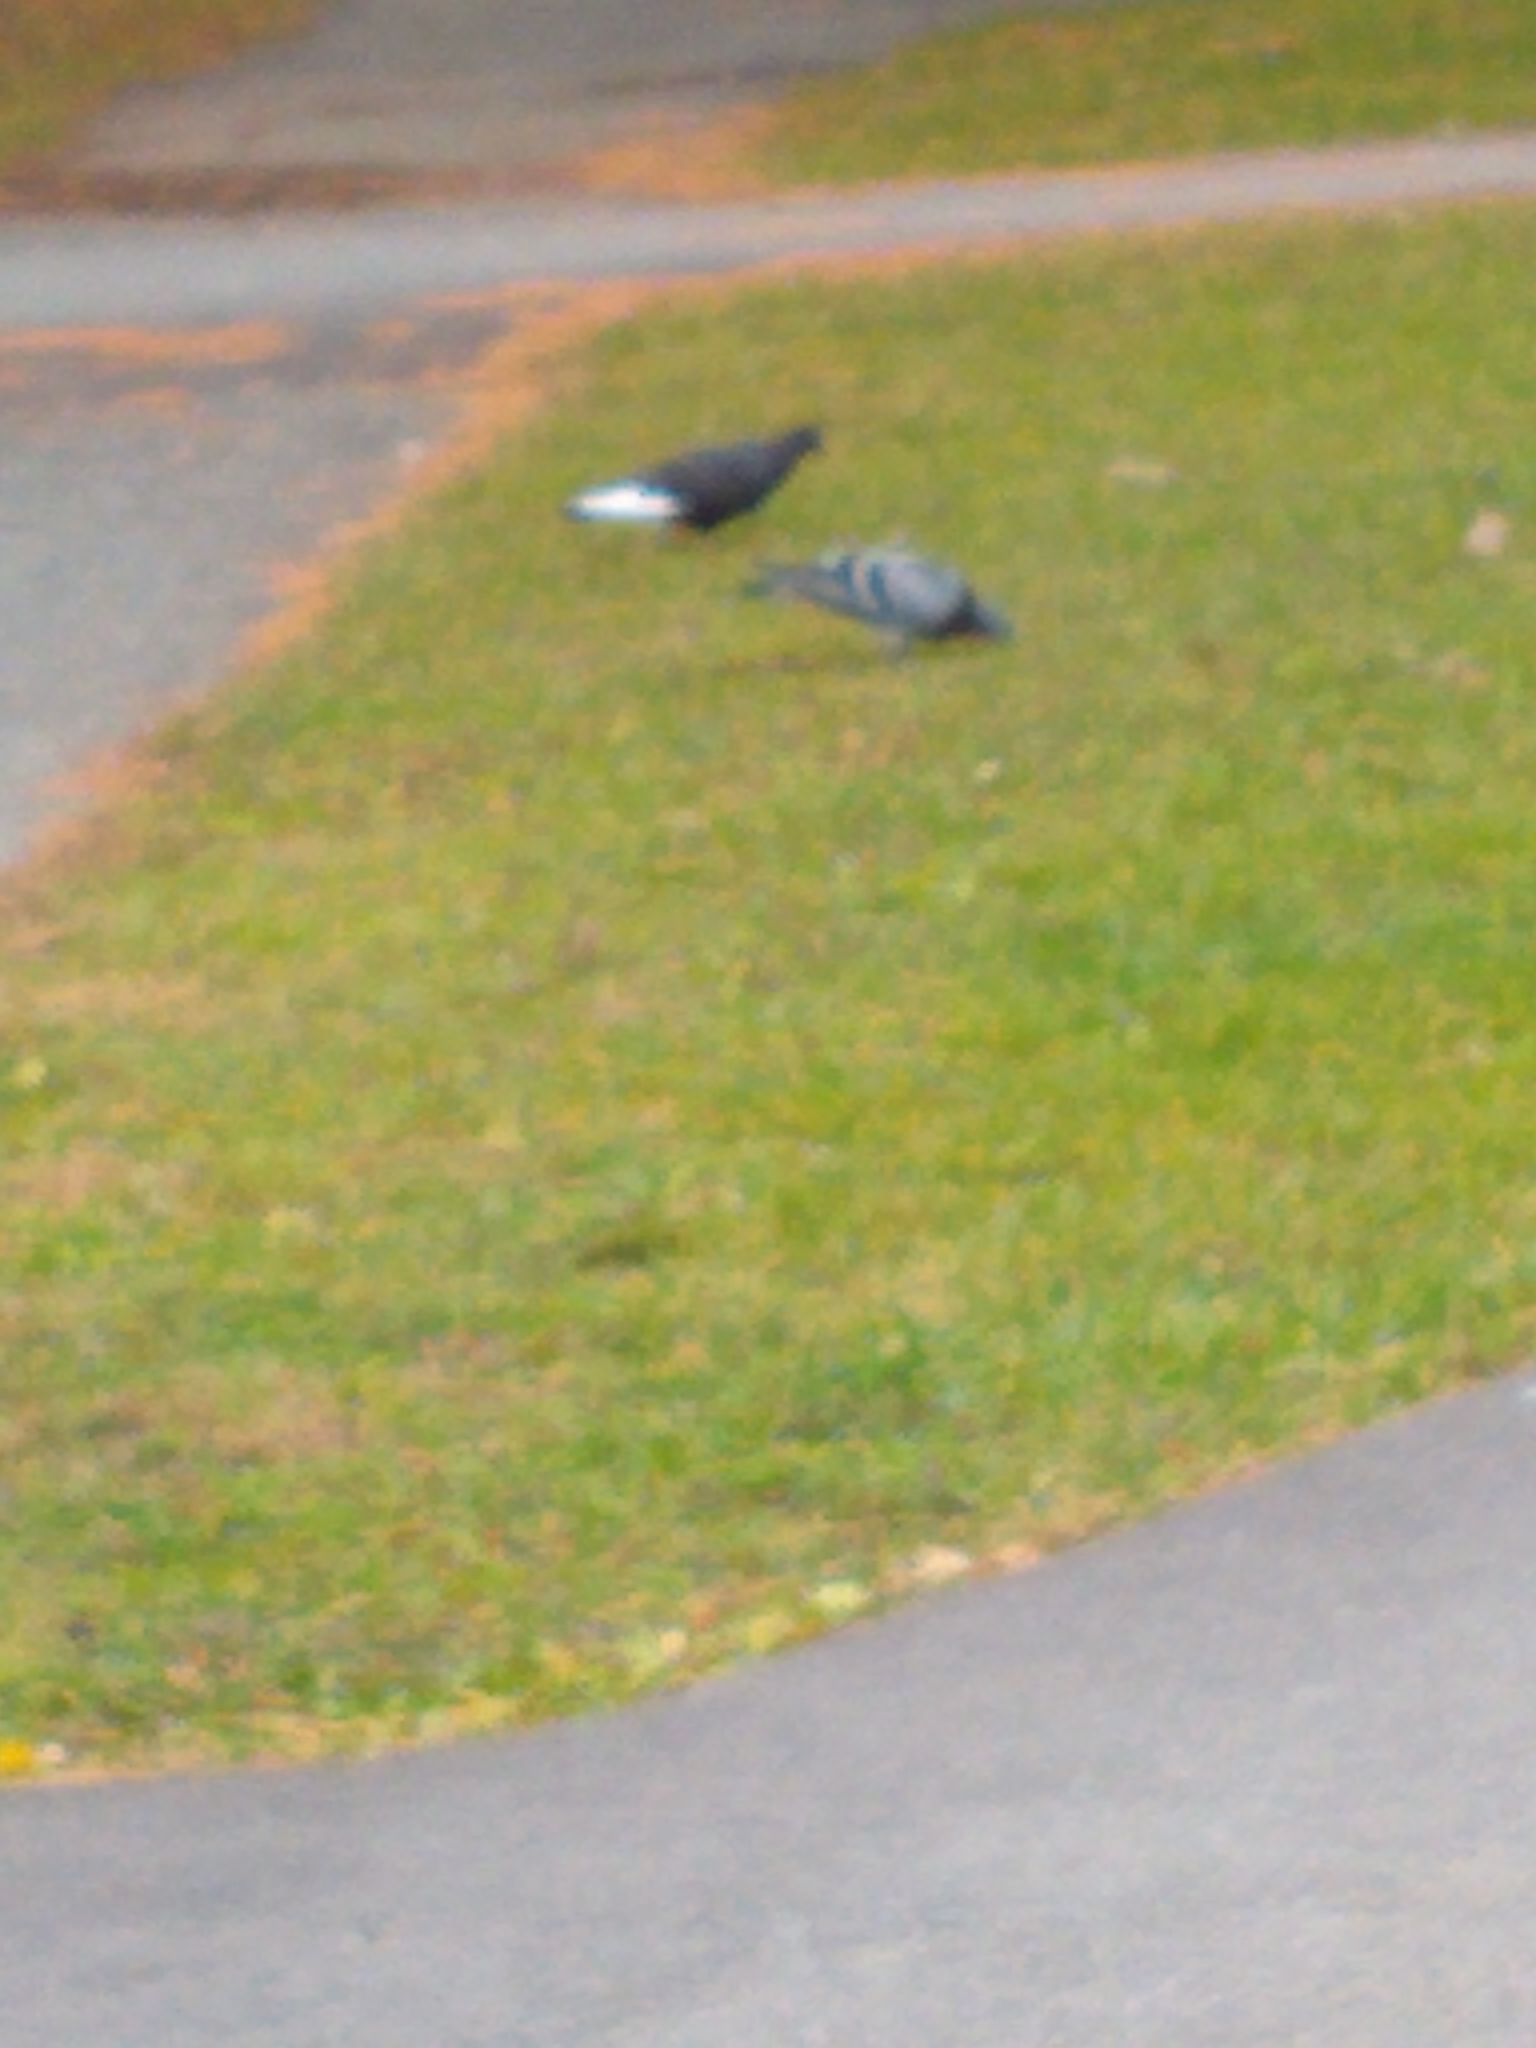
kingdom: Animalia
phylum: Chordata
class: Aves
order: Columbiformes
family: Columbidae
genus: Columba
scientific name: Columba livia
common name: Rock pigeon
